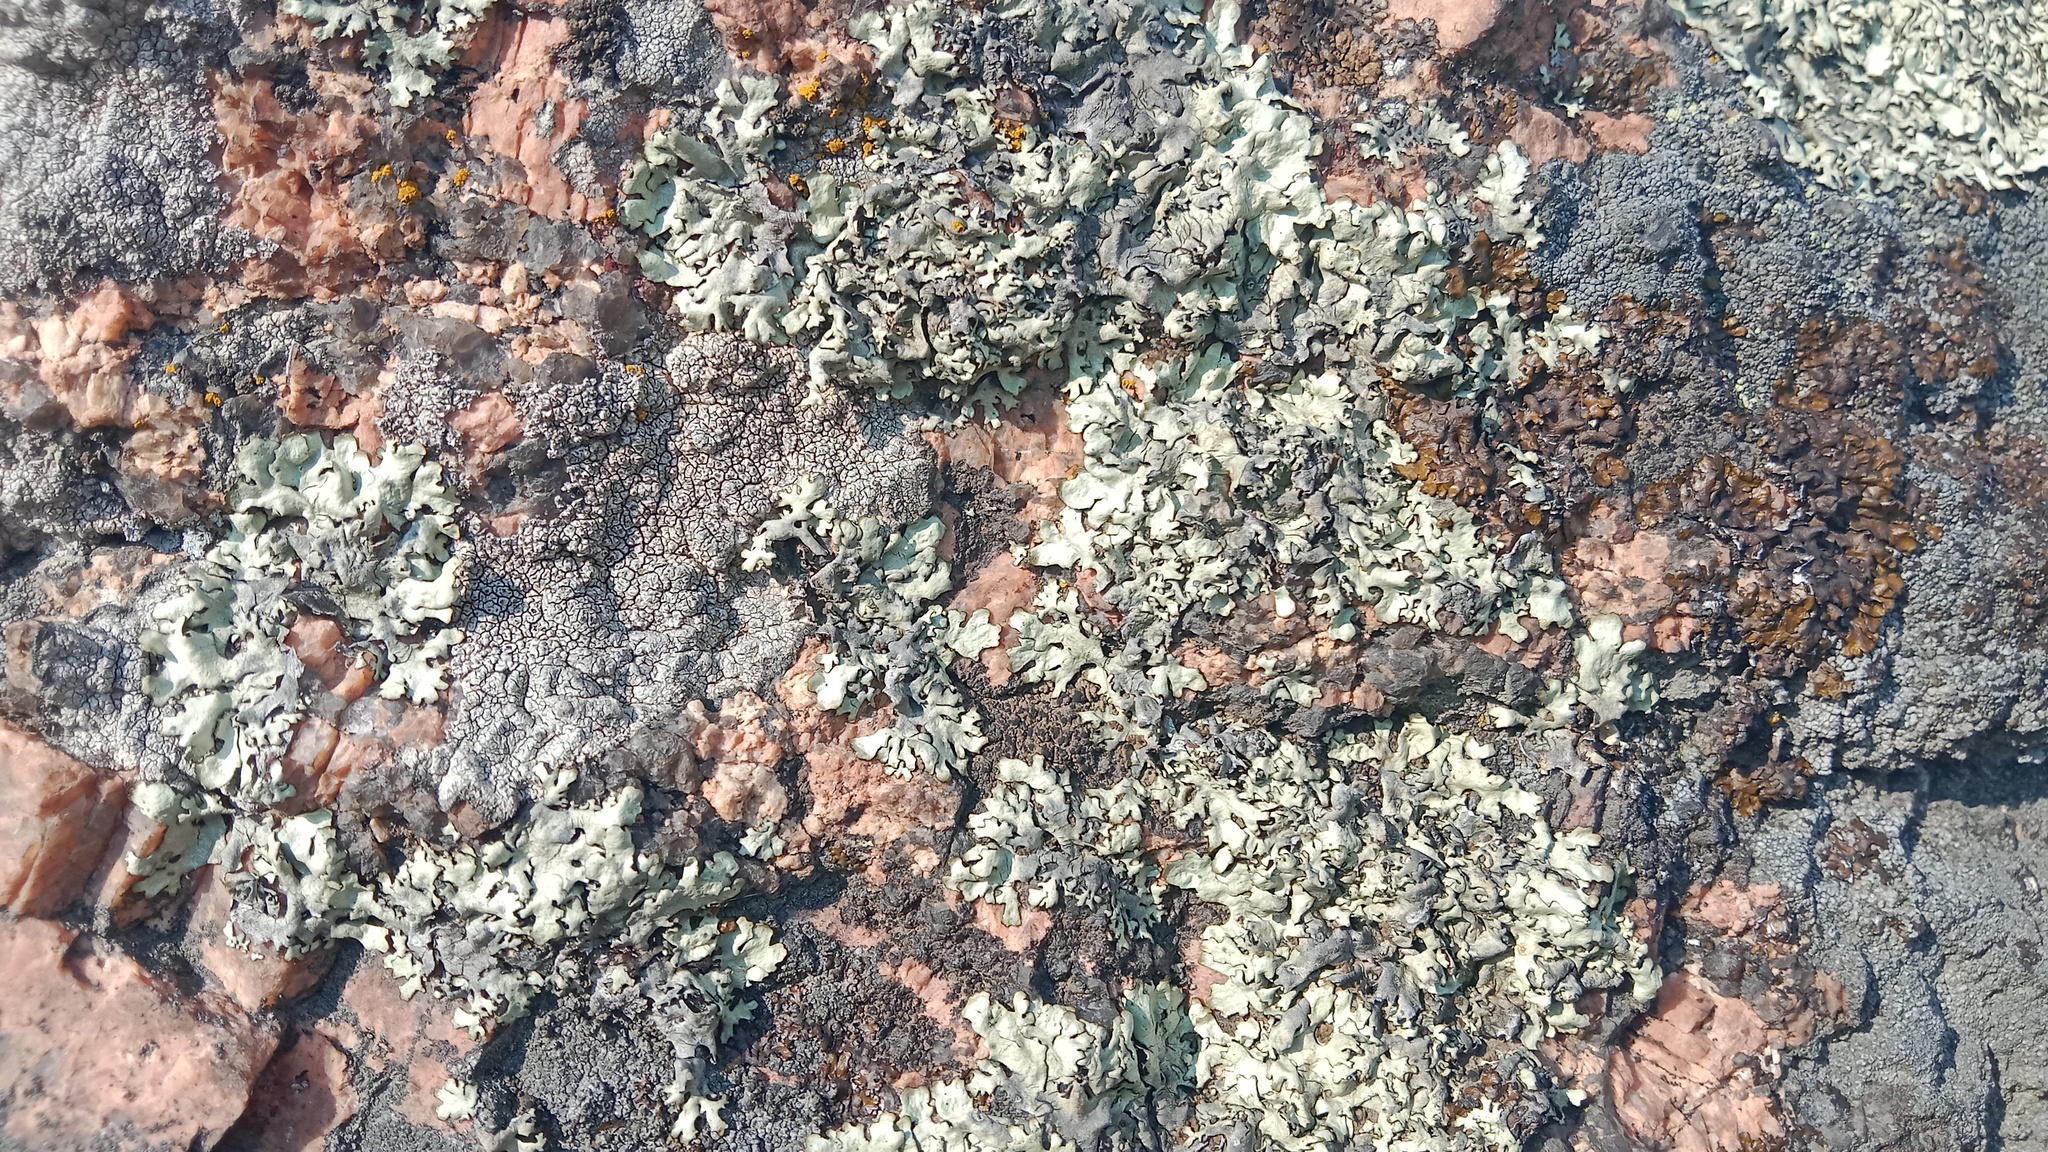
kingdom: Fungi
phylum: Ascomycota
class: Lecanoromycetes
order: Lecanorales
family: Parmeliaceae
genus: Xanthoparmelia
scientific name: Xanthoparmelia stenophylla
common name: Shingled rock shield
